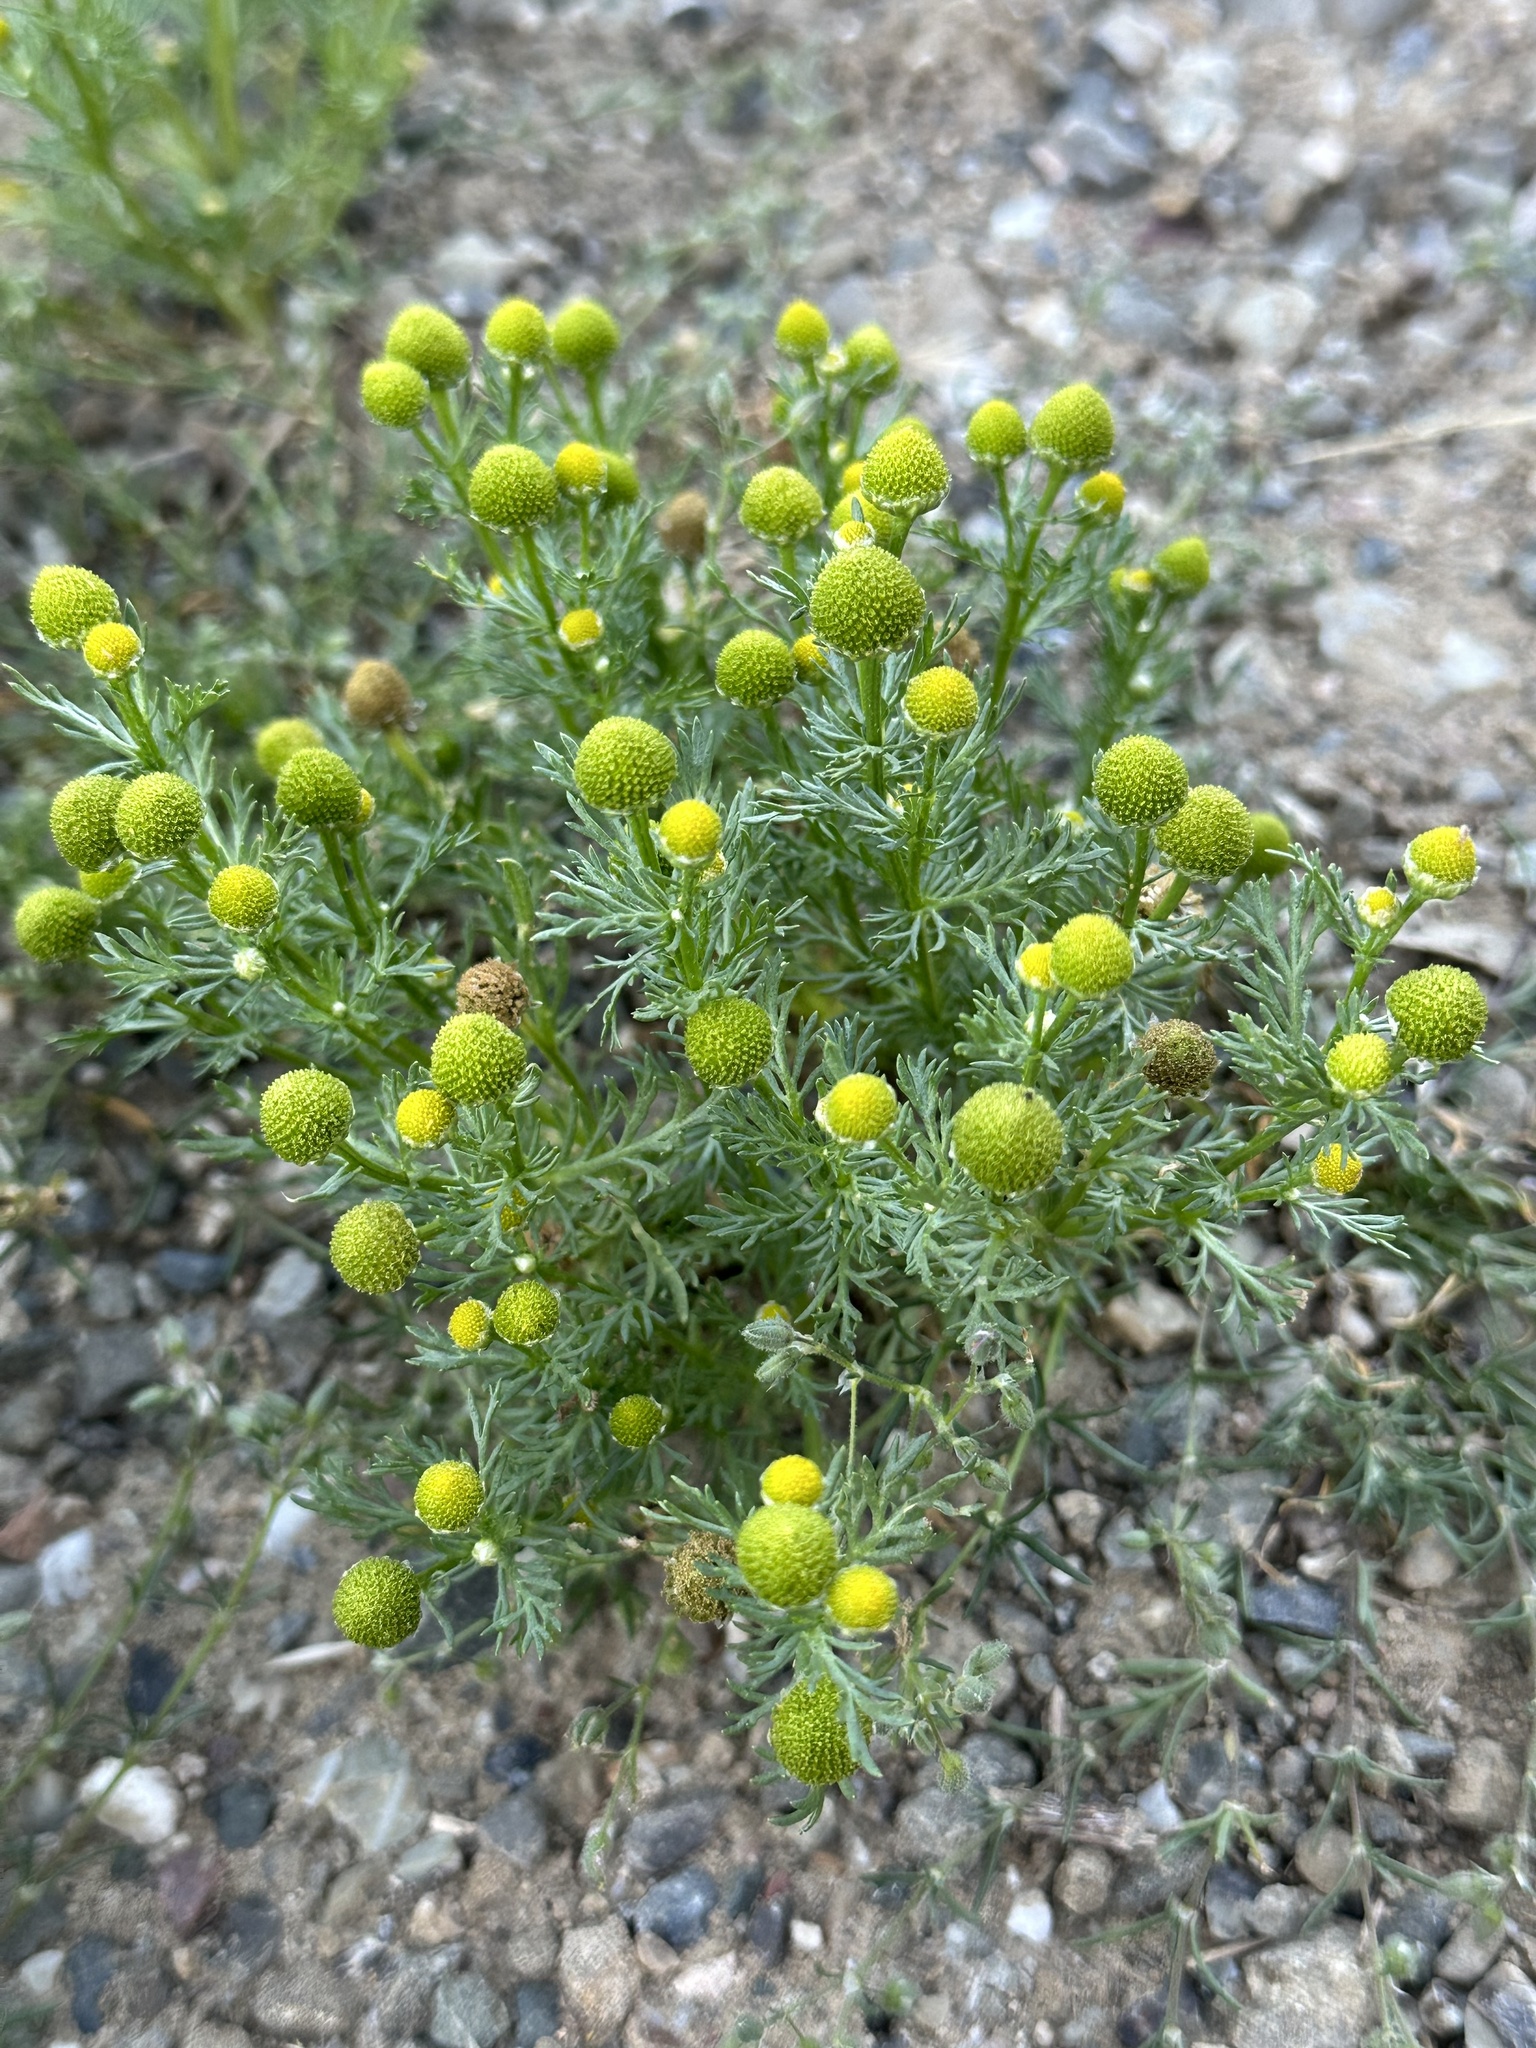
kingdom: Plantae
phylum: Tracheophyta
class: Magnoliopsida
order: Asterales
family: Asteraceae
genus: Matricaria
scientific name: Matricaria discoidea
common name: Disc mayweed
